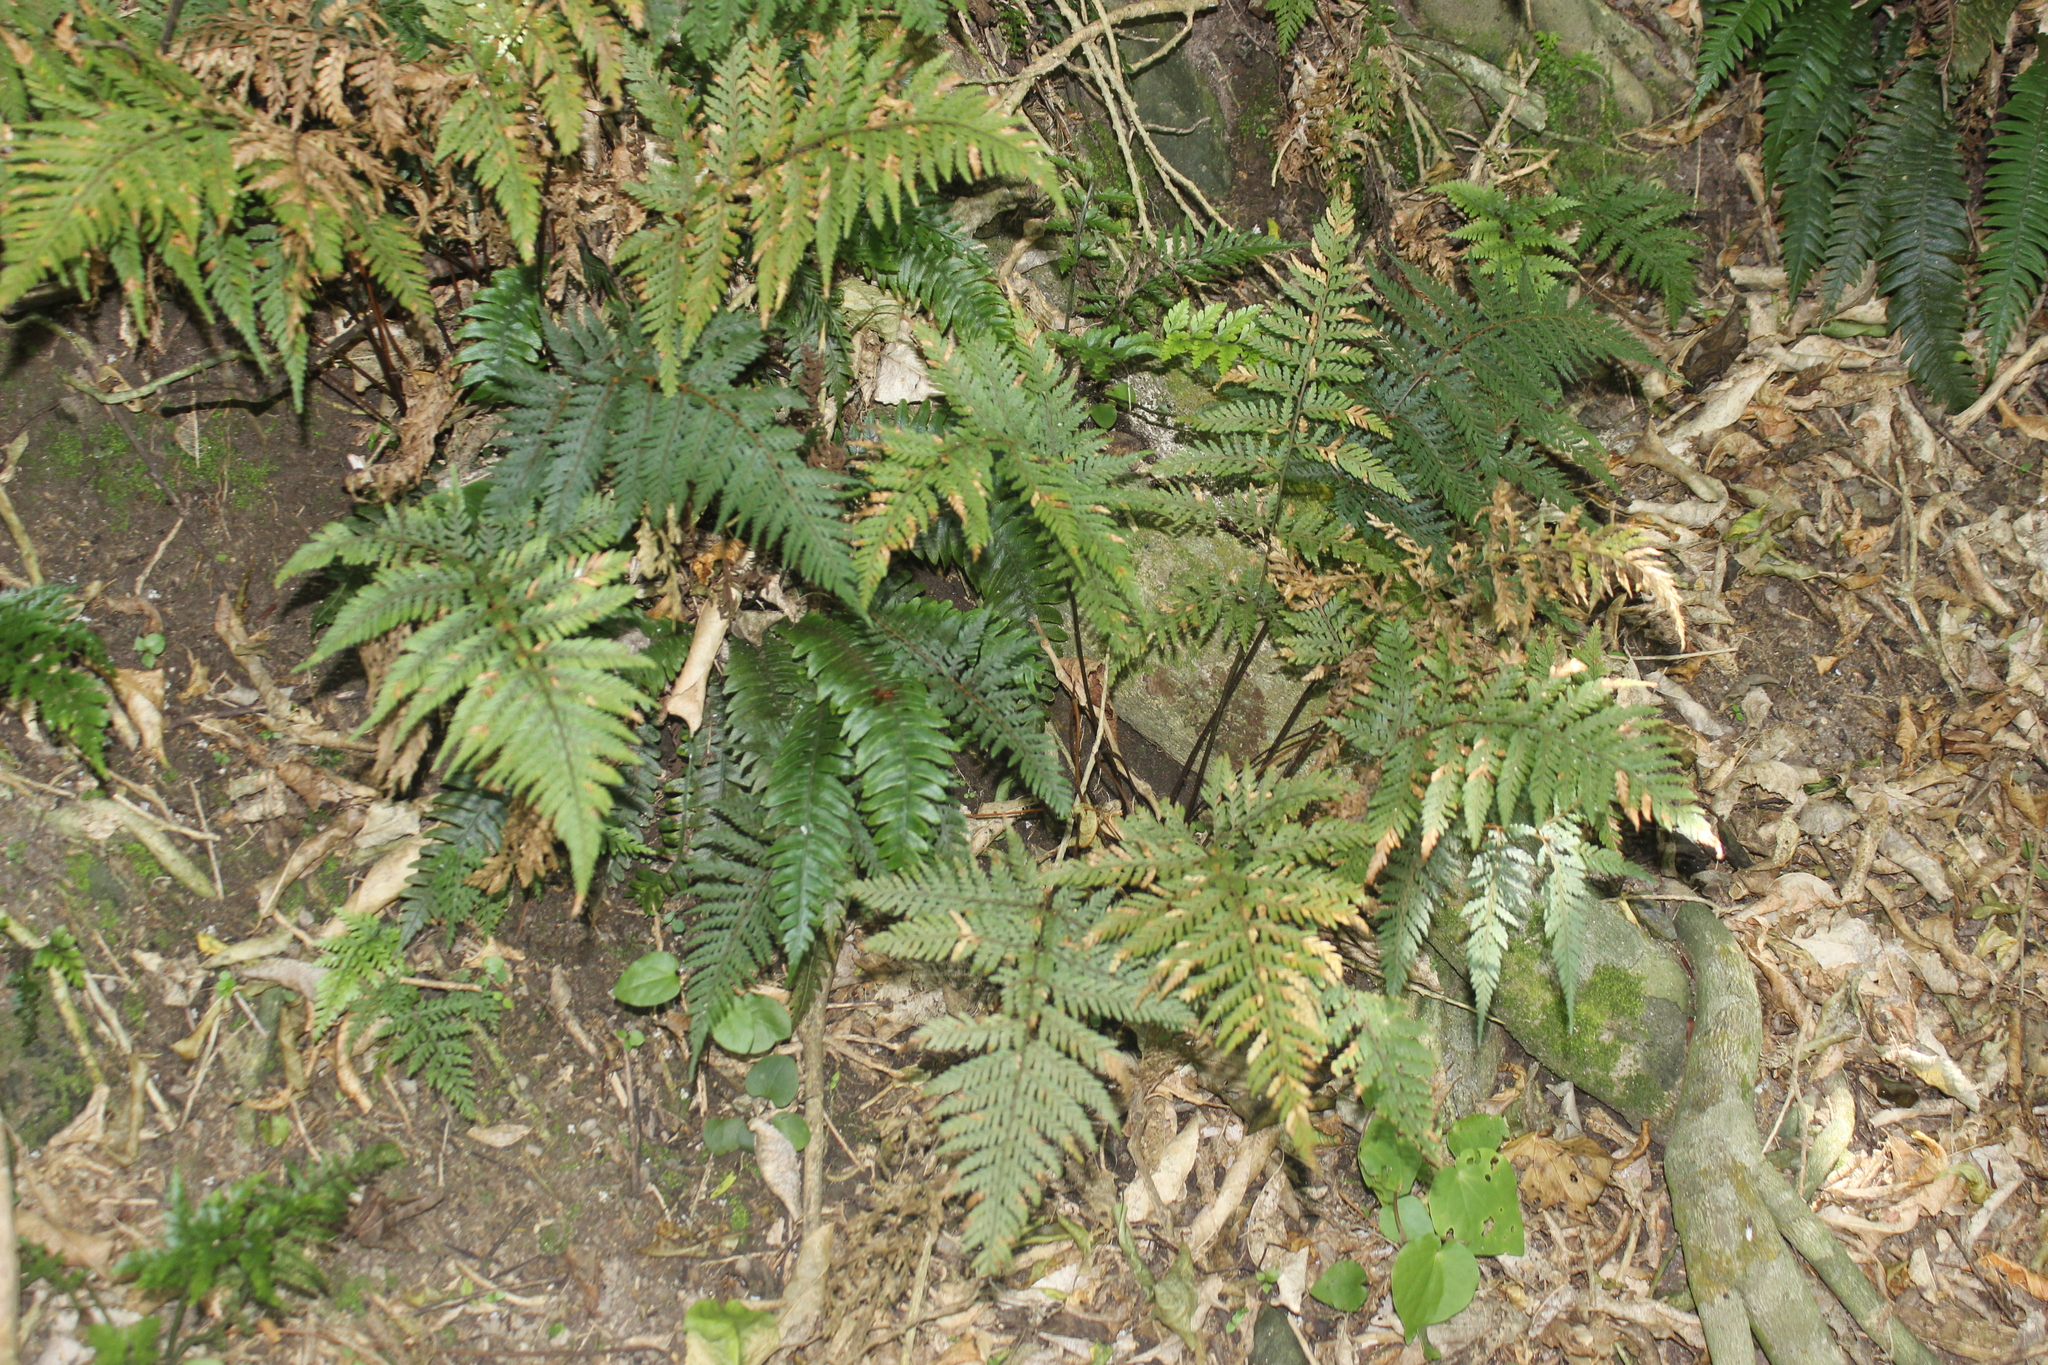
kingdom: Plantae
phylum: Tracheophyta
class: Polypodiopsida
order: Polypodiales
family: Dryopteridaceae
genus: Parapolystichum
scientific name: Parapolystichum glabellum
